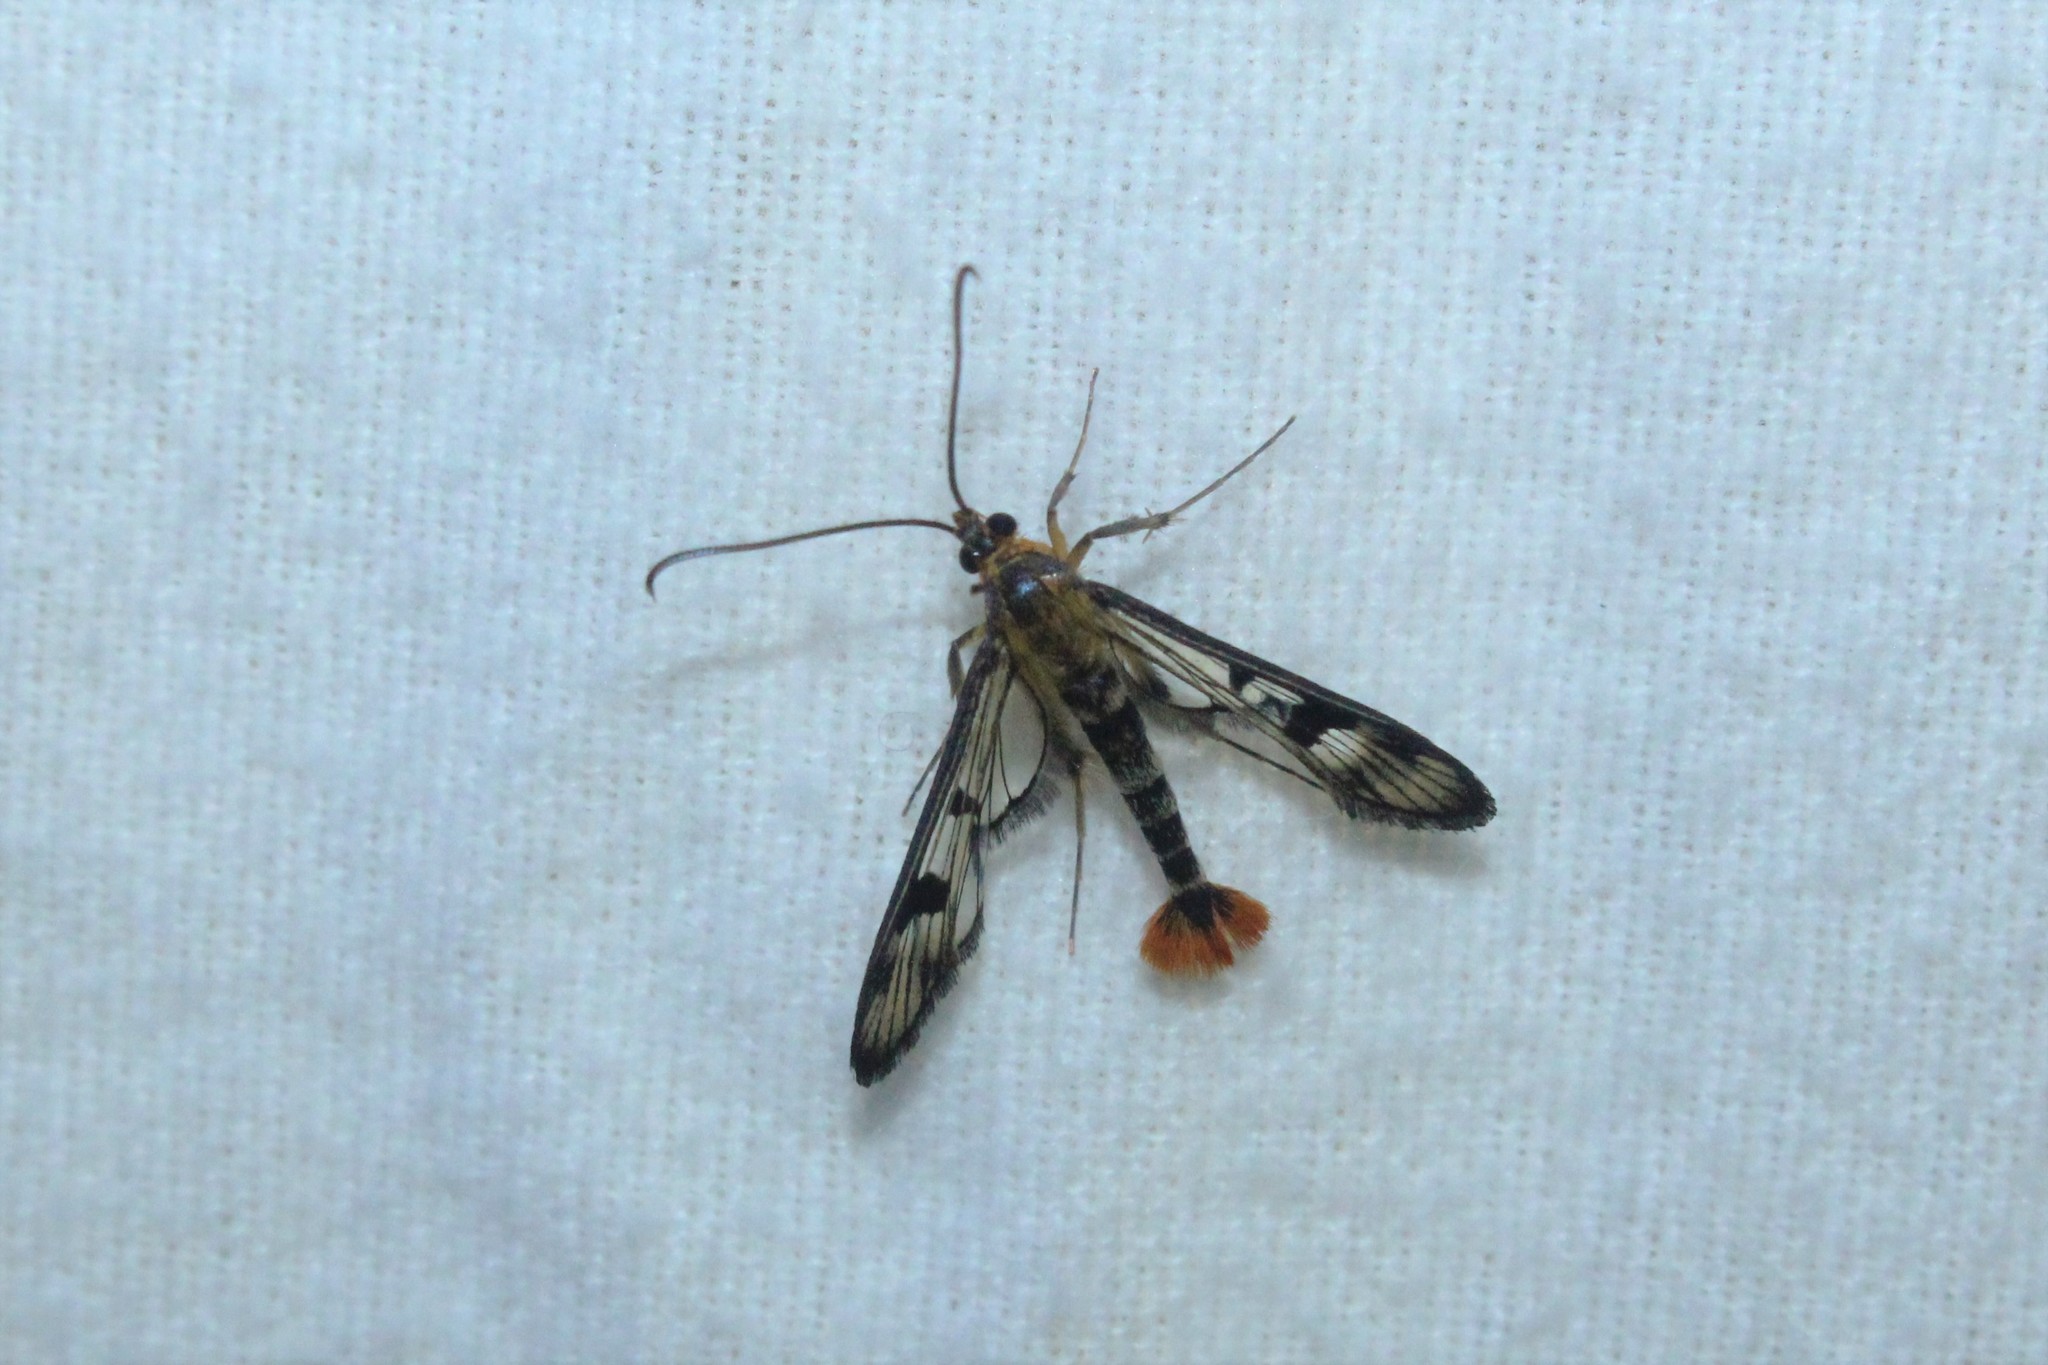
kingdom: Animalia
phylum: Arthropoda
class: Insecta
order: Lepidoptera
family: Sesiidae
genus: Synanthedon
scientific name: Synanthedon acerni
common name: Maple callus borer moth
